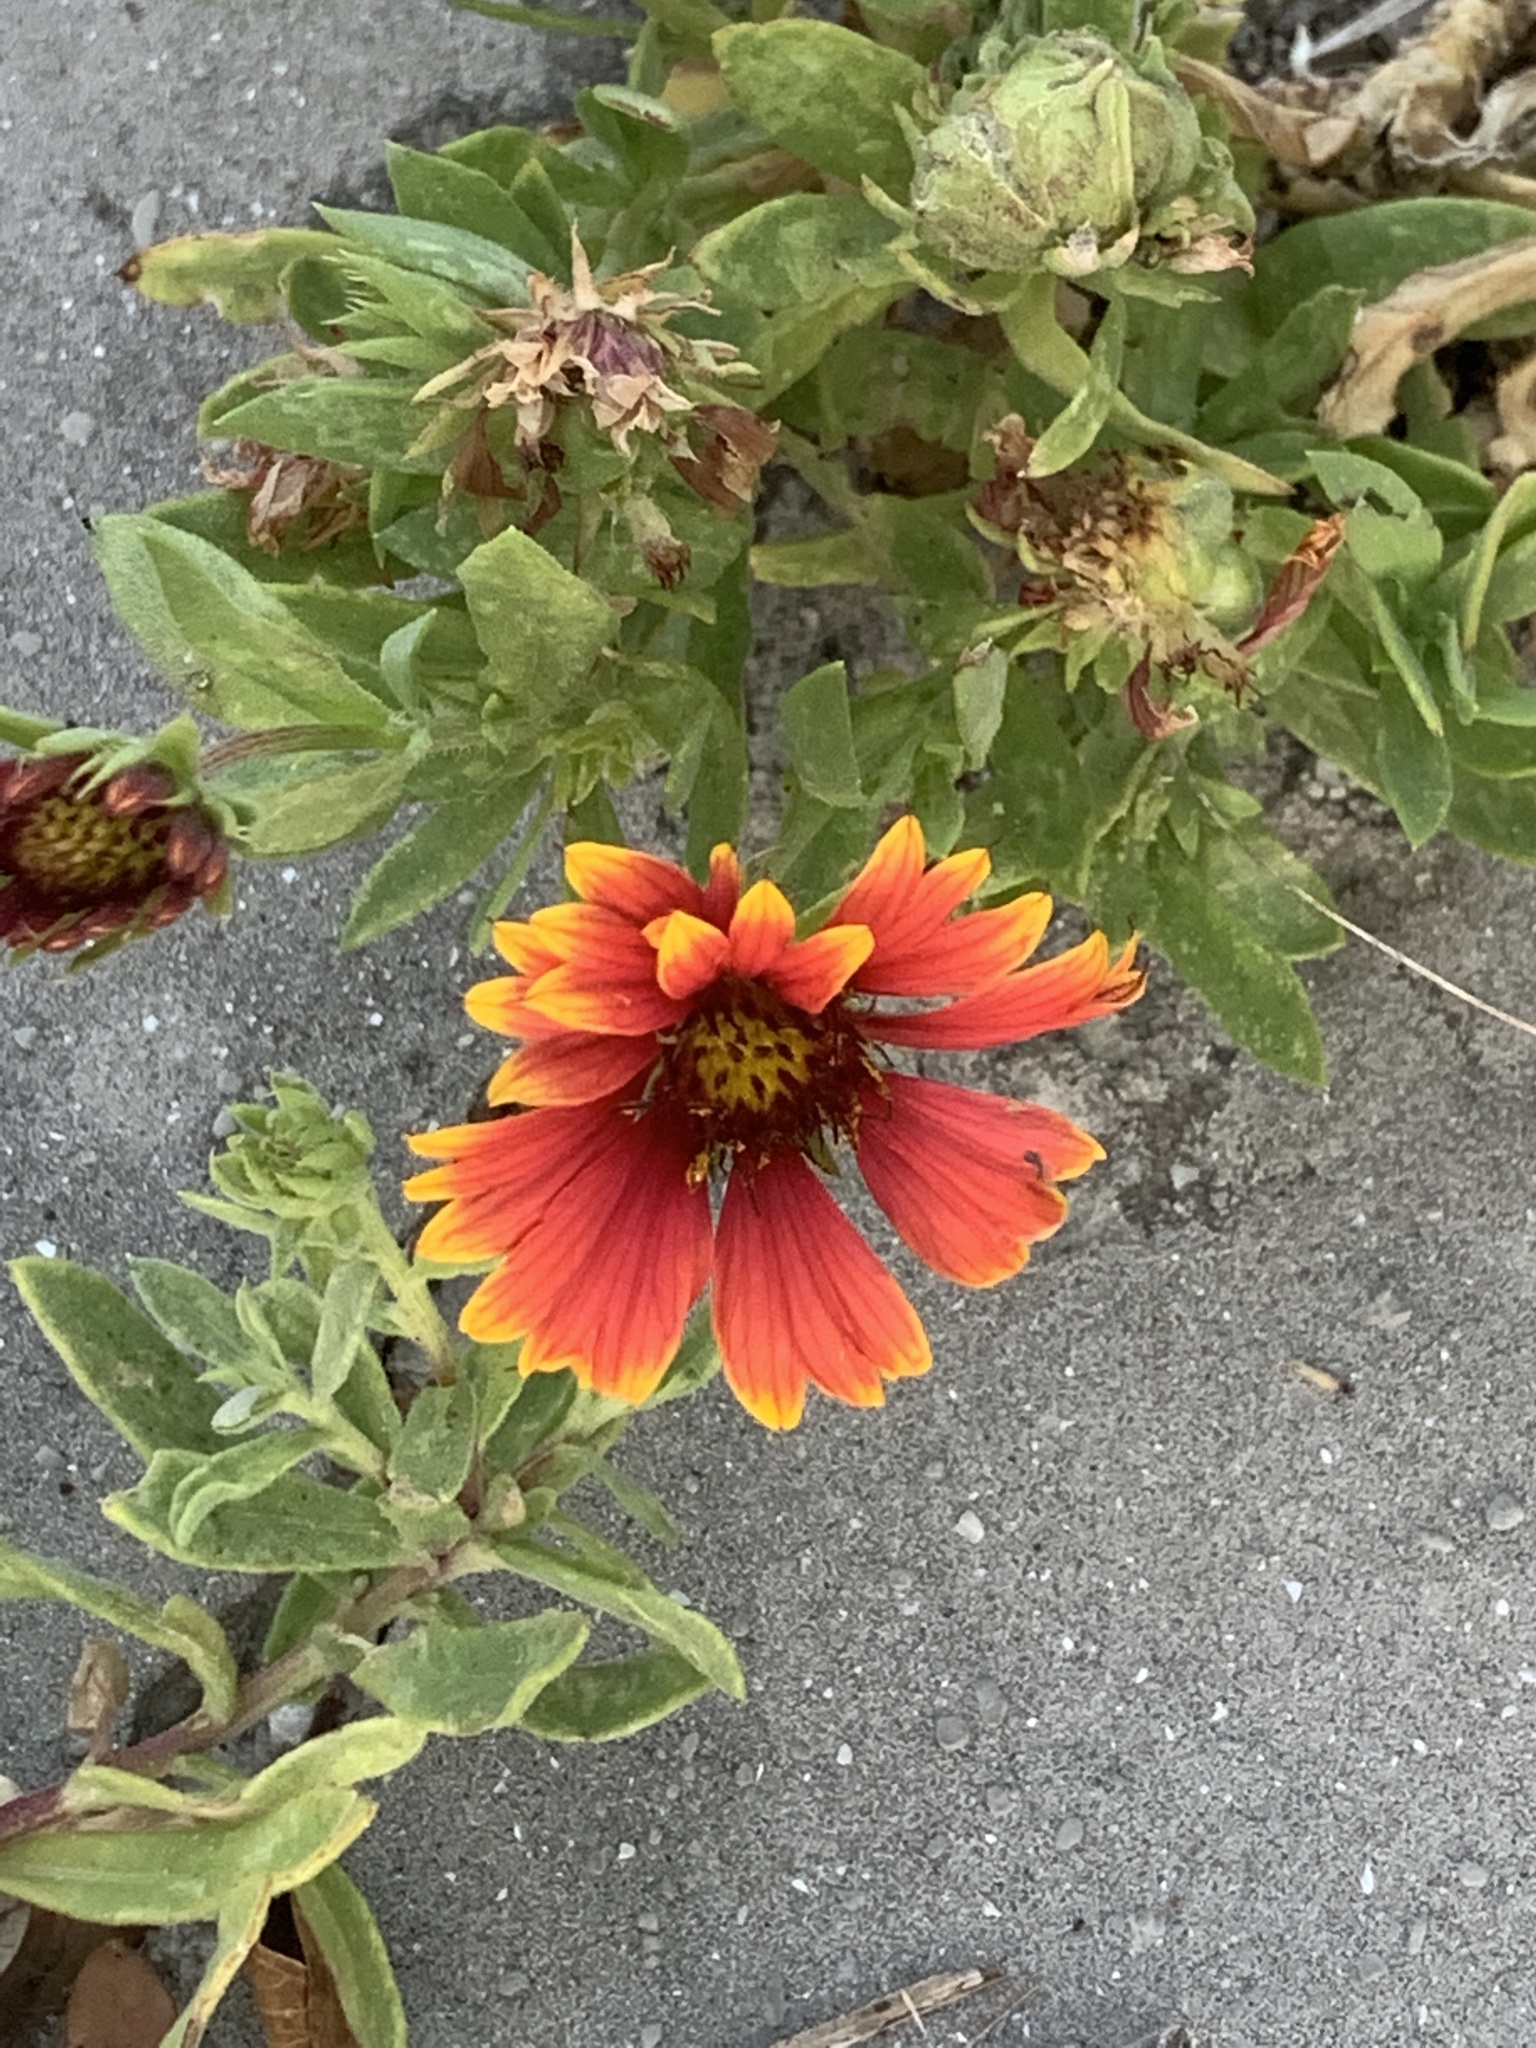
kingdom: Plantae
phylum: Tracheophyta
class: Magnoliopsida
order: Asterales
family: Asteraceae
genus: Gaillardia
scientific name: Gaillardia pulchella
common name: Firewheel
